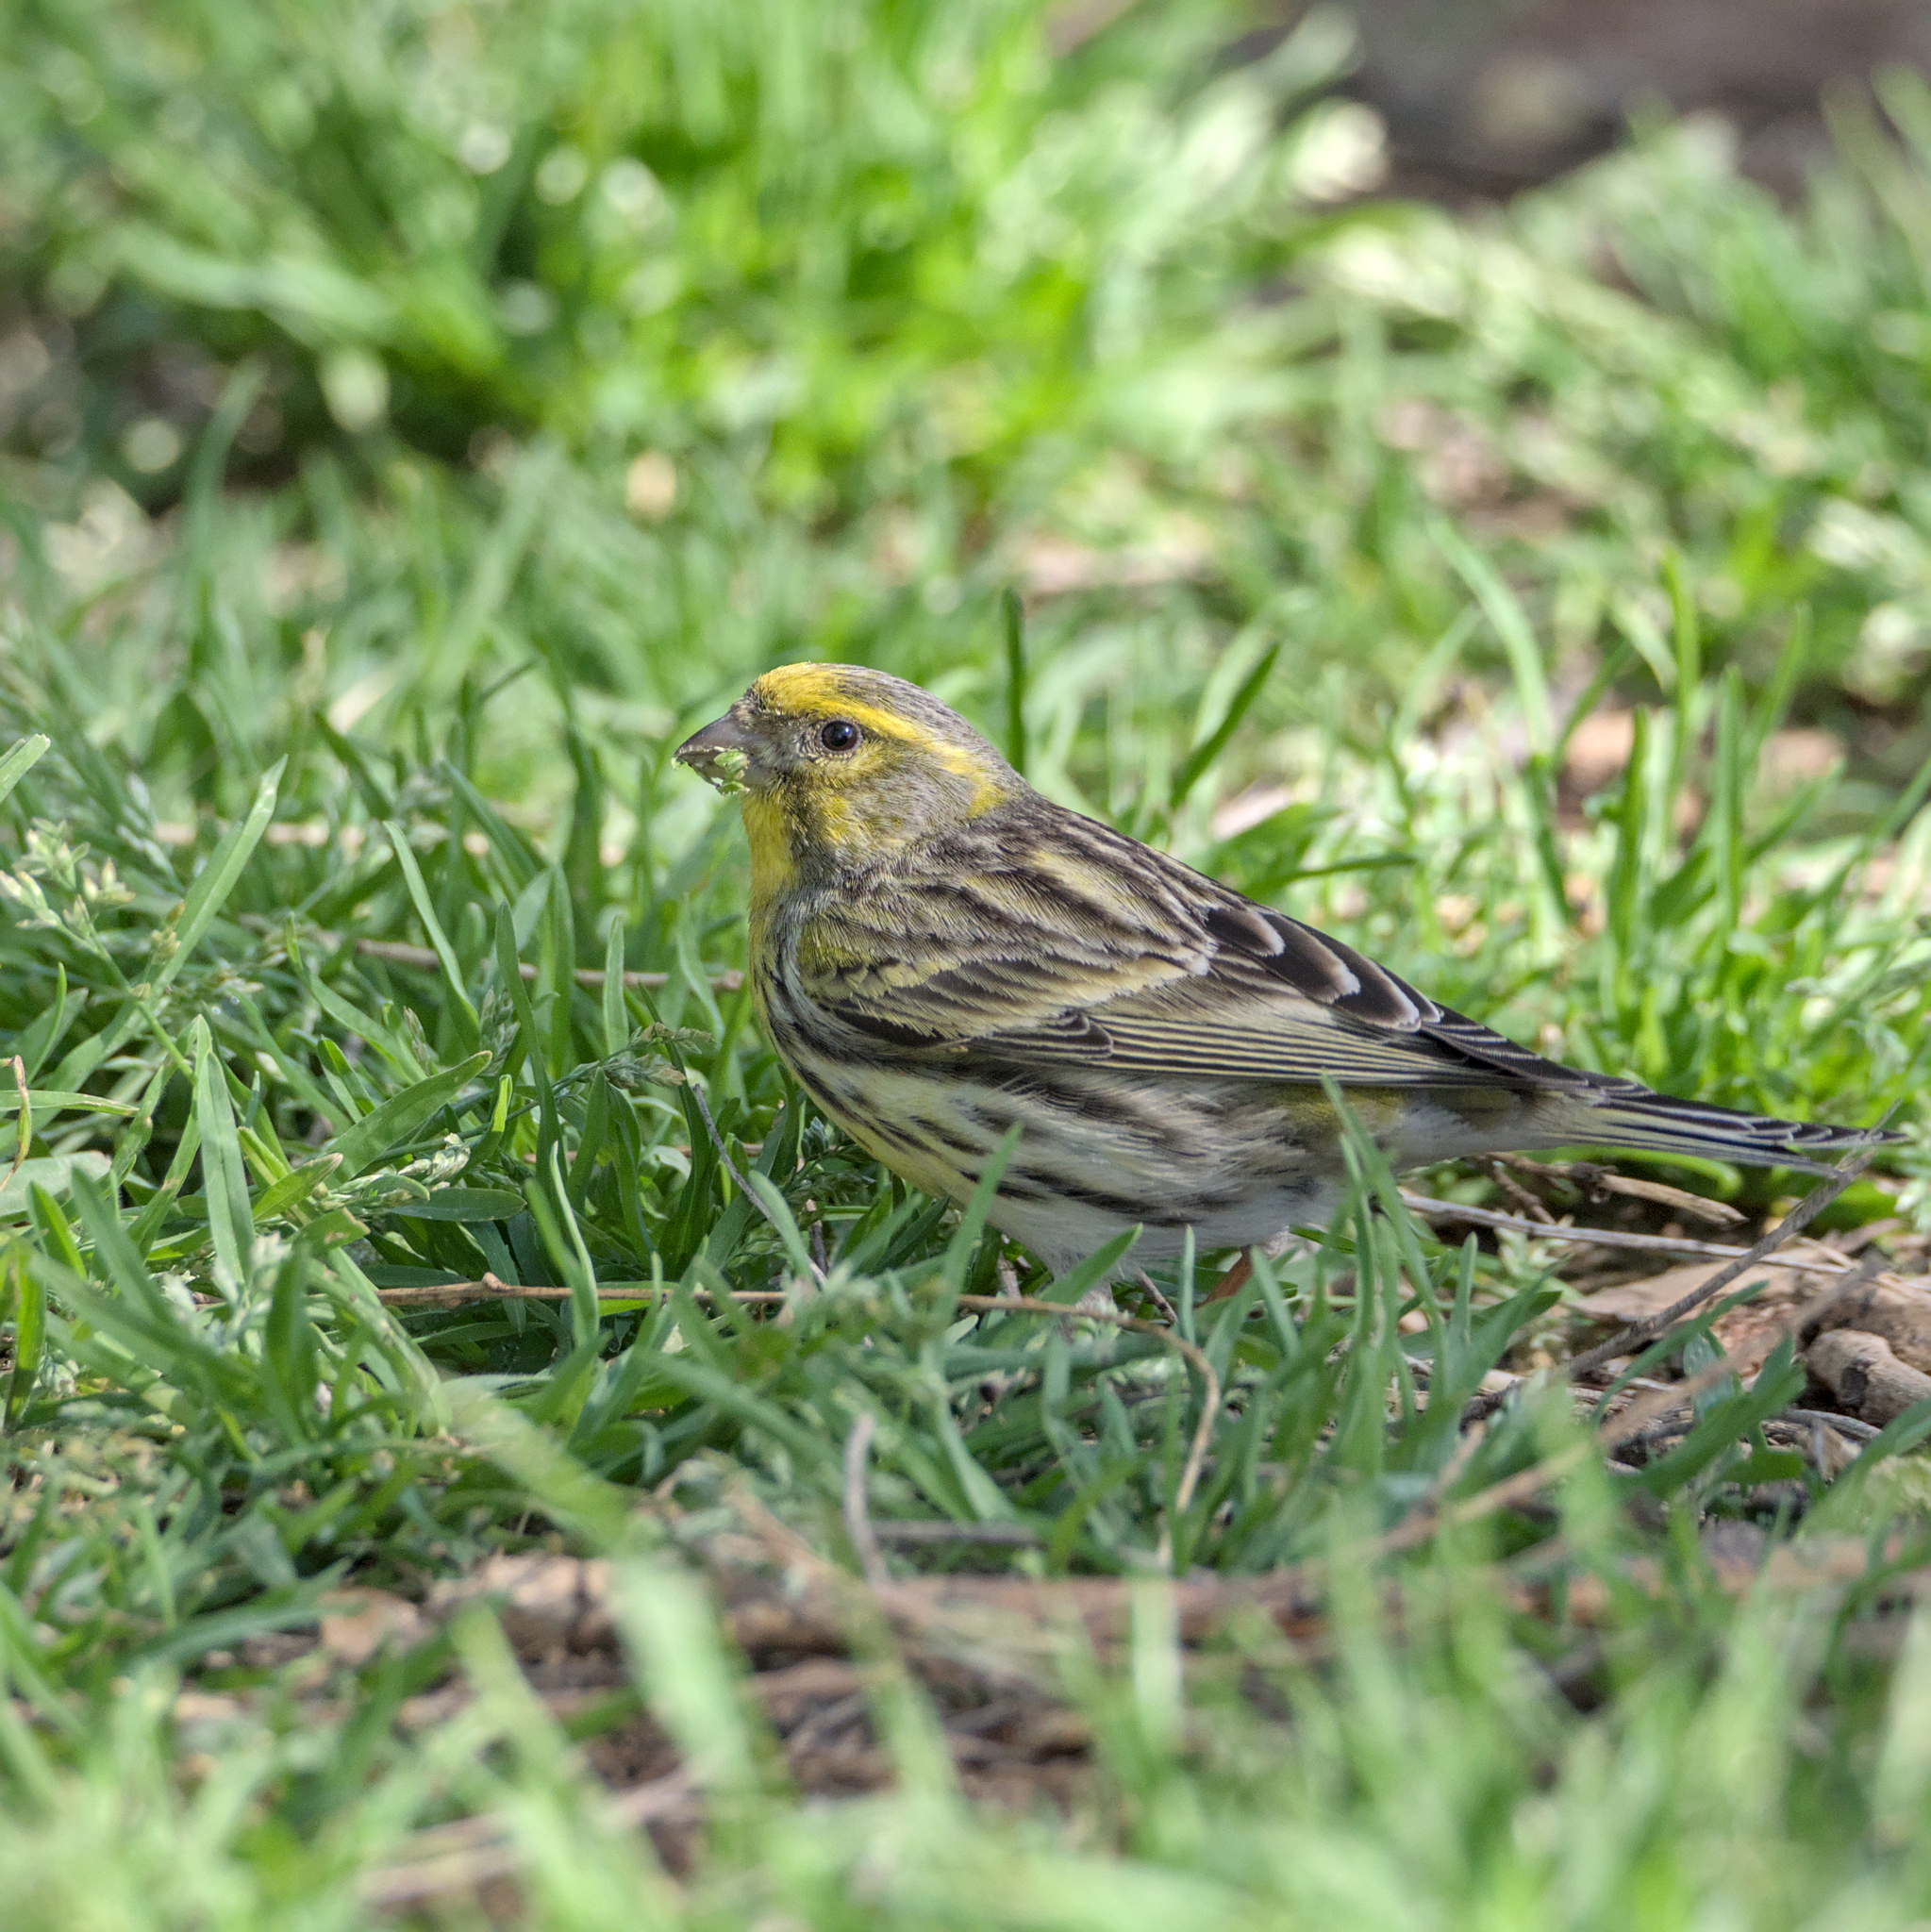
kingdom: Animalia
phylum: Chordata
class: Aves
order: Passeriformes
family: Fringillidae
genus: Serinus
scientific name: Serinus serinus
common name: European serin
